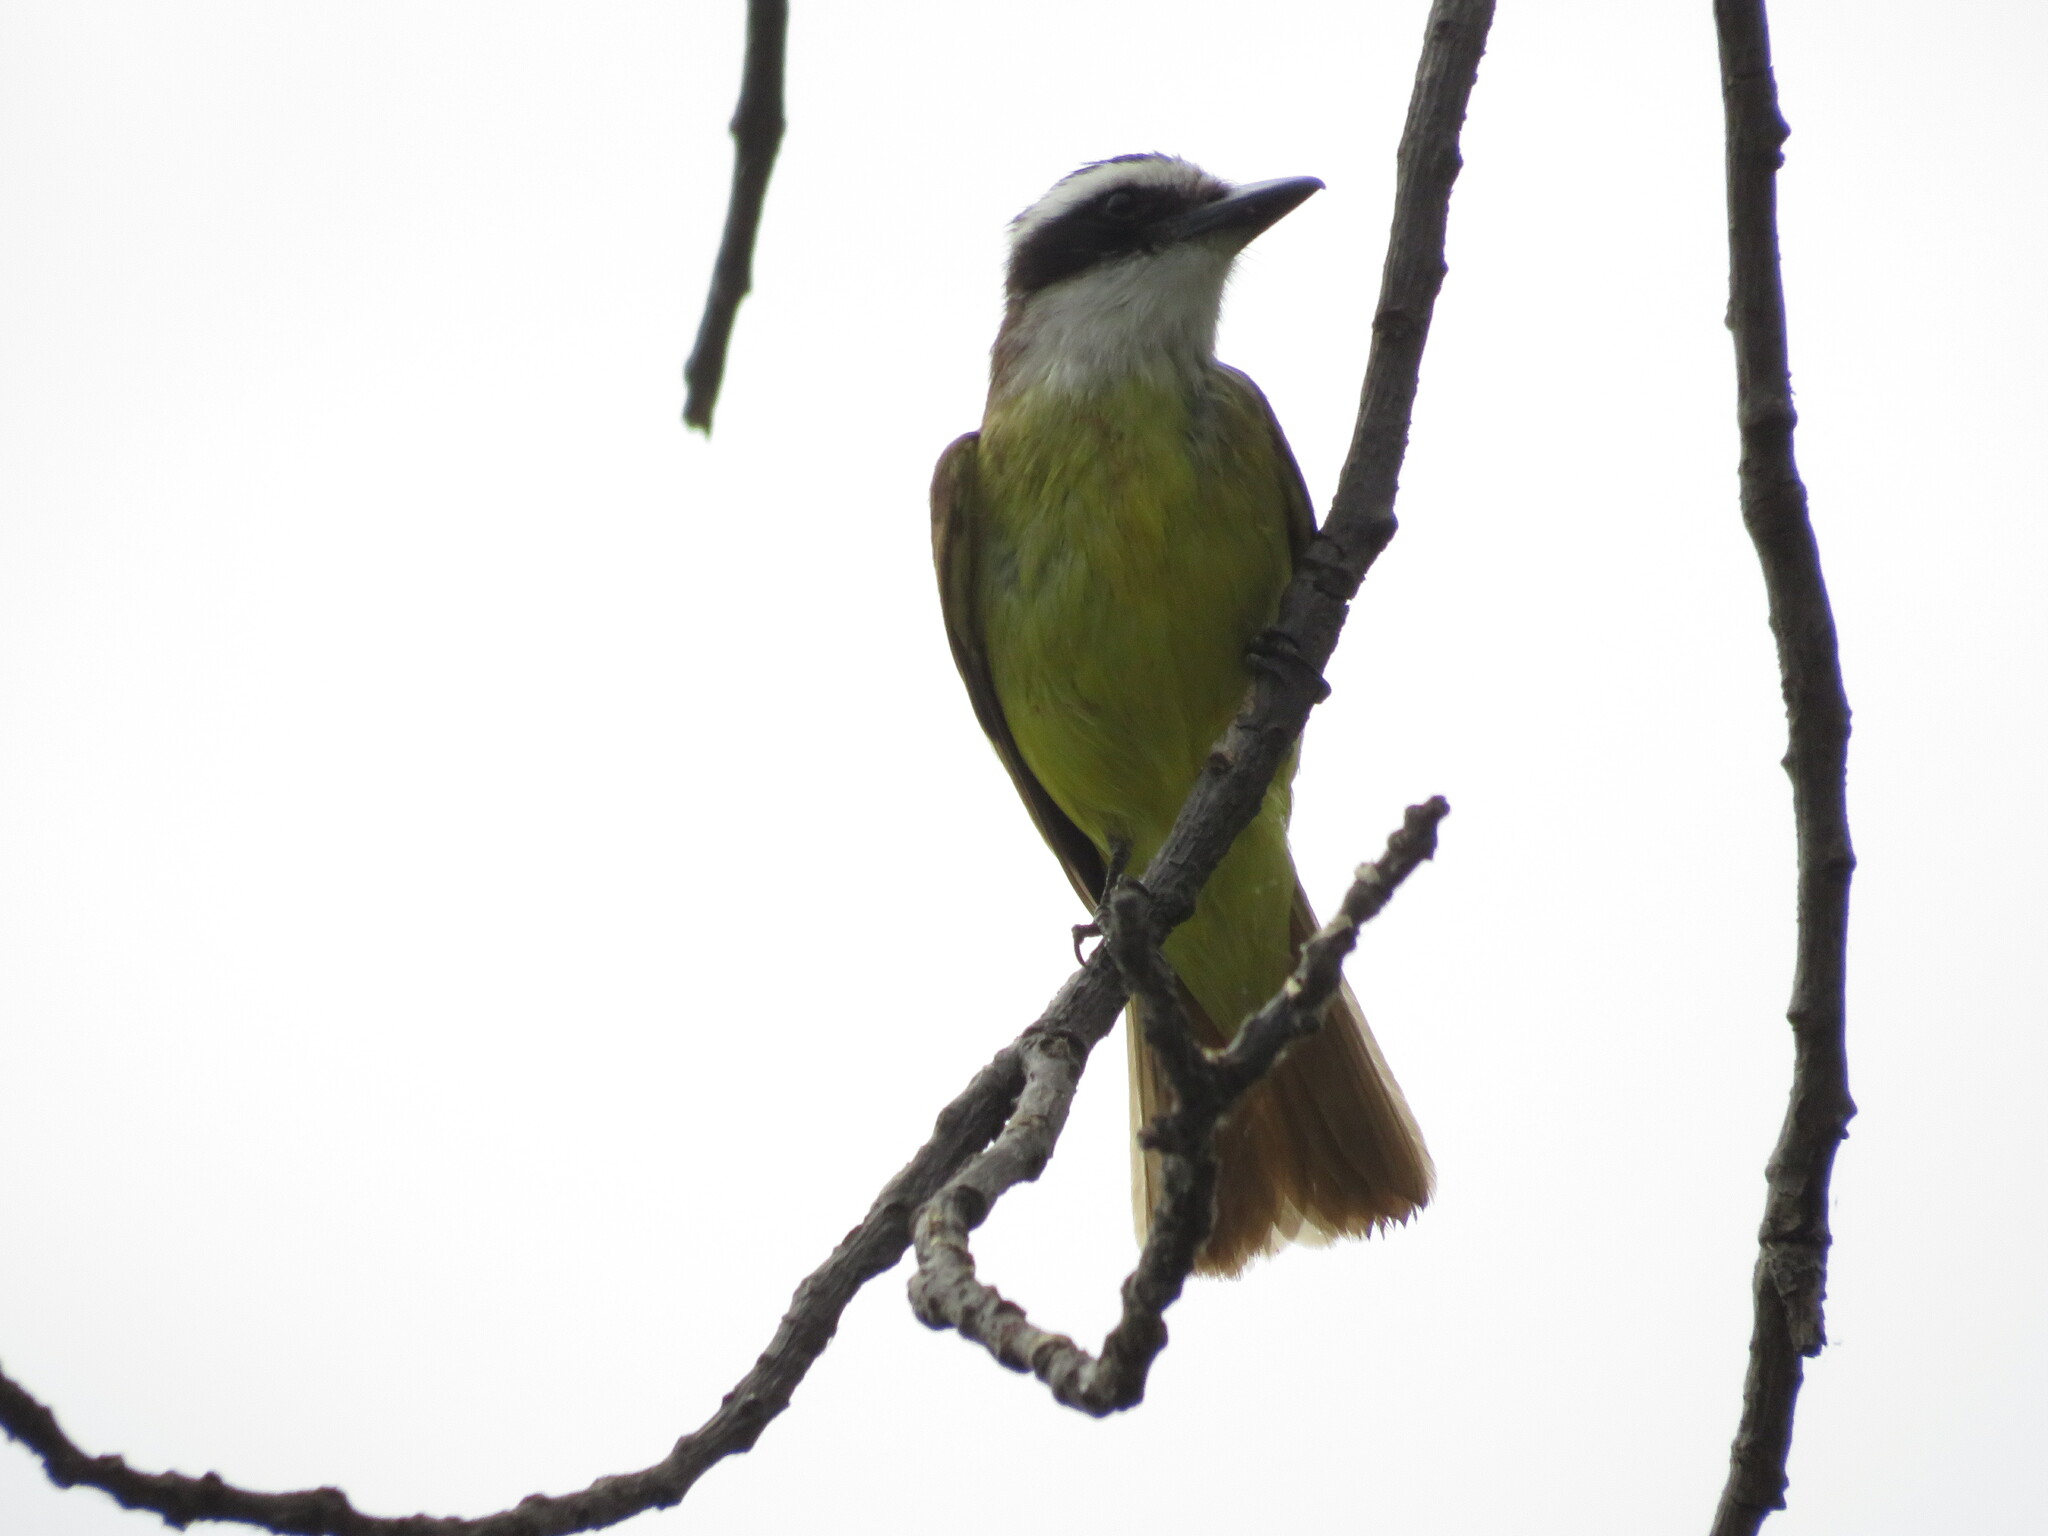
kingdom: Animalia
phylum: Chordata
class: Aves
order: Passeriformes
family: Tyrannidae
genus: Pitangus
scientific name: Pitangus sulphuratus
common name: Great kiskadee
